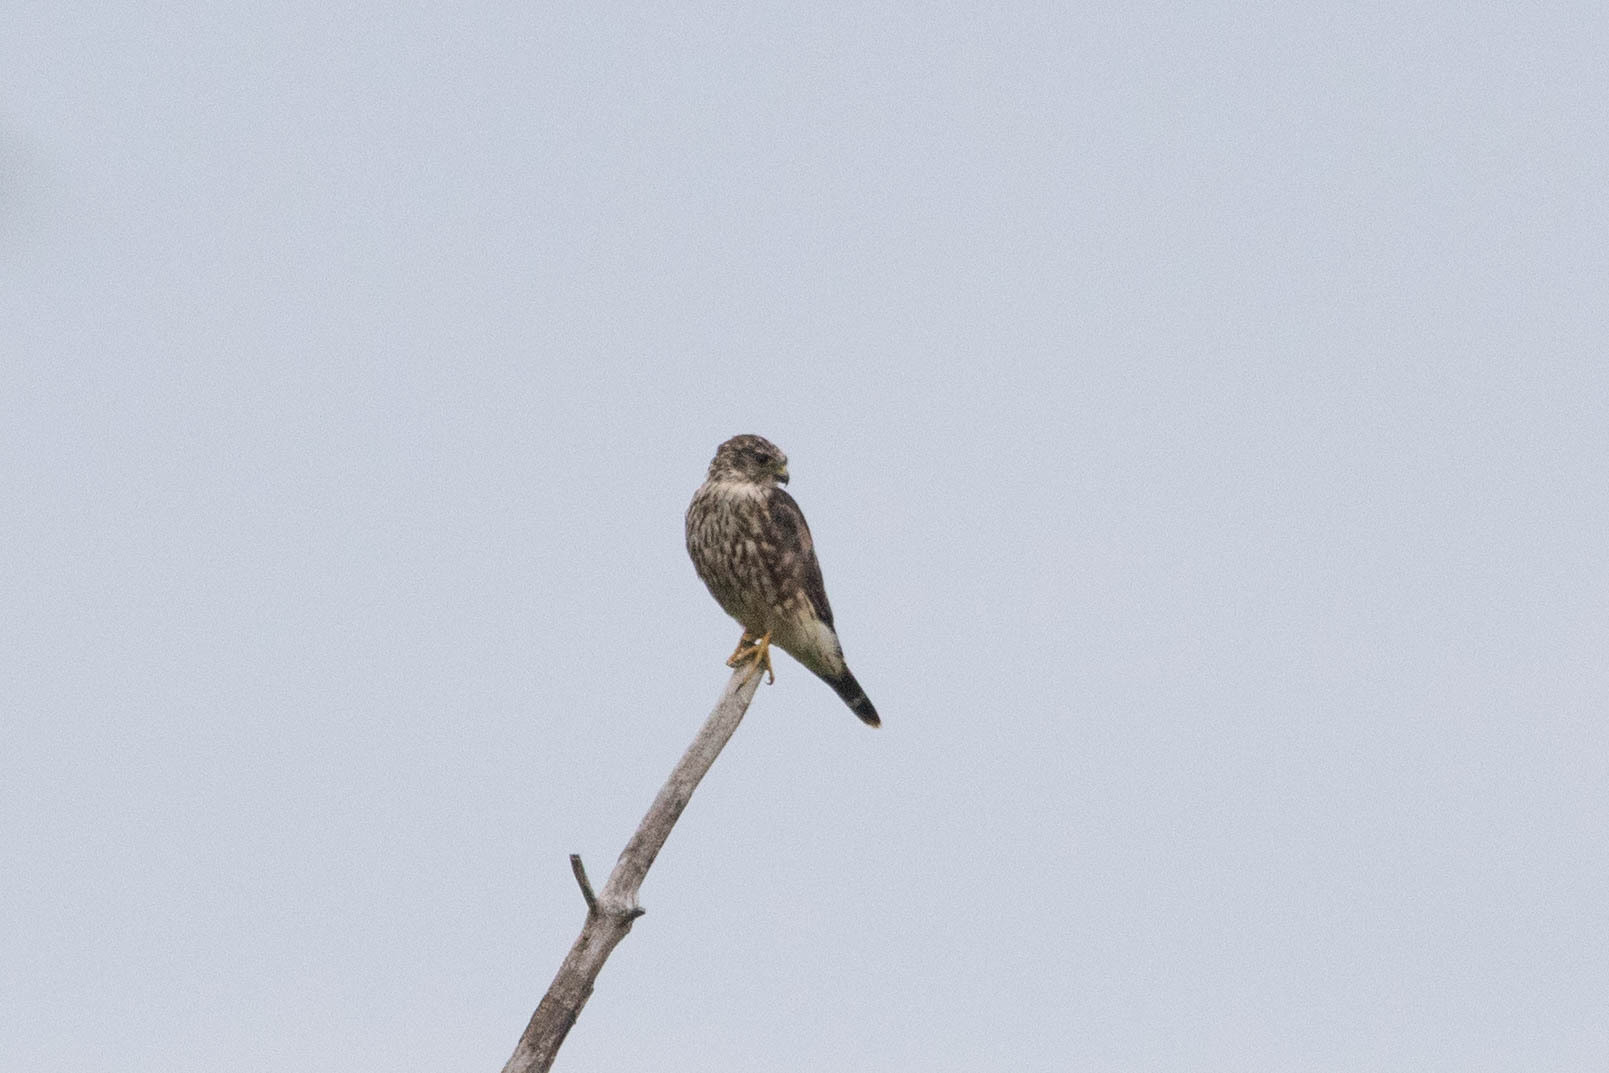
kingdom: Animalia
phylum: Chordata
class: Aves
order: Falconiformes
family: Falconidae
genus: Falco
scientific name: Falco columbarius
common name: Merlin
